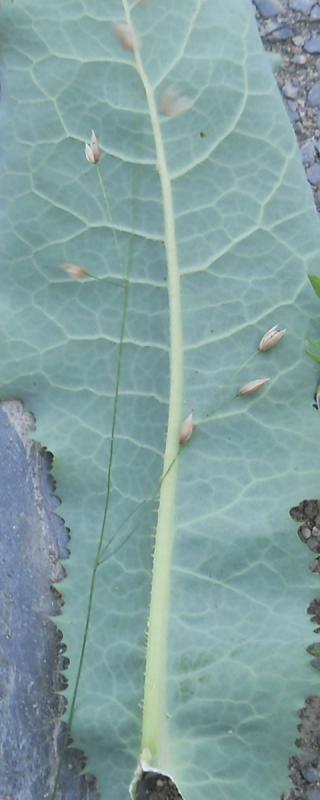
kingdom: Plantae
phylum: Tracheophyta
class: Liliopsida
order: Poales
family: Poaceae
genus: Melica
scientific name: Melica uniflora
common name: Wood melick
